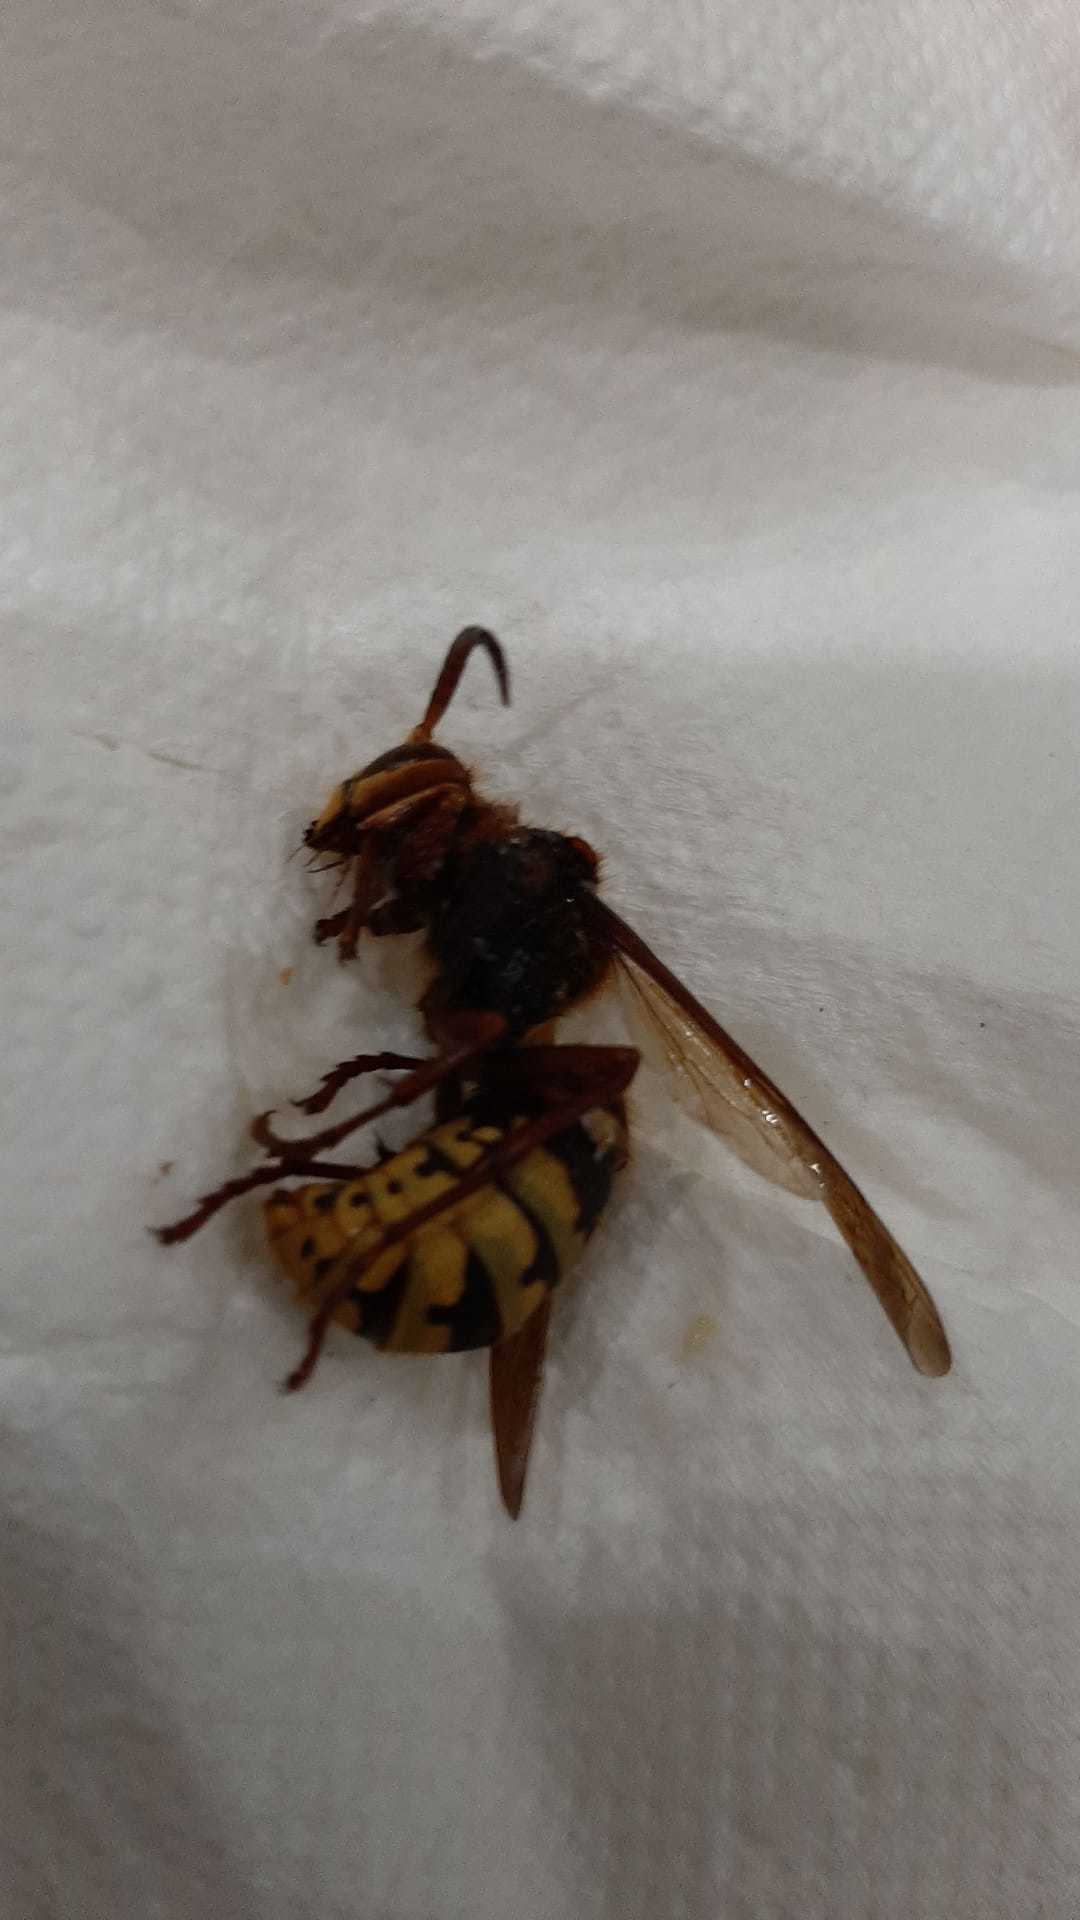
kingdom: Animalia
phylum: Arthropoda
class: Insecta
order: Hymenoptera
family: Vespidae
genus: Vespa
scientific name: Vespa crabro
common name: Hornet
